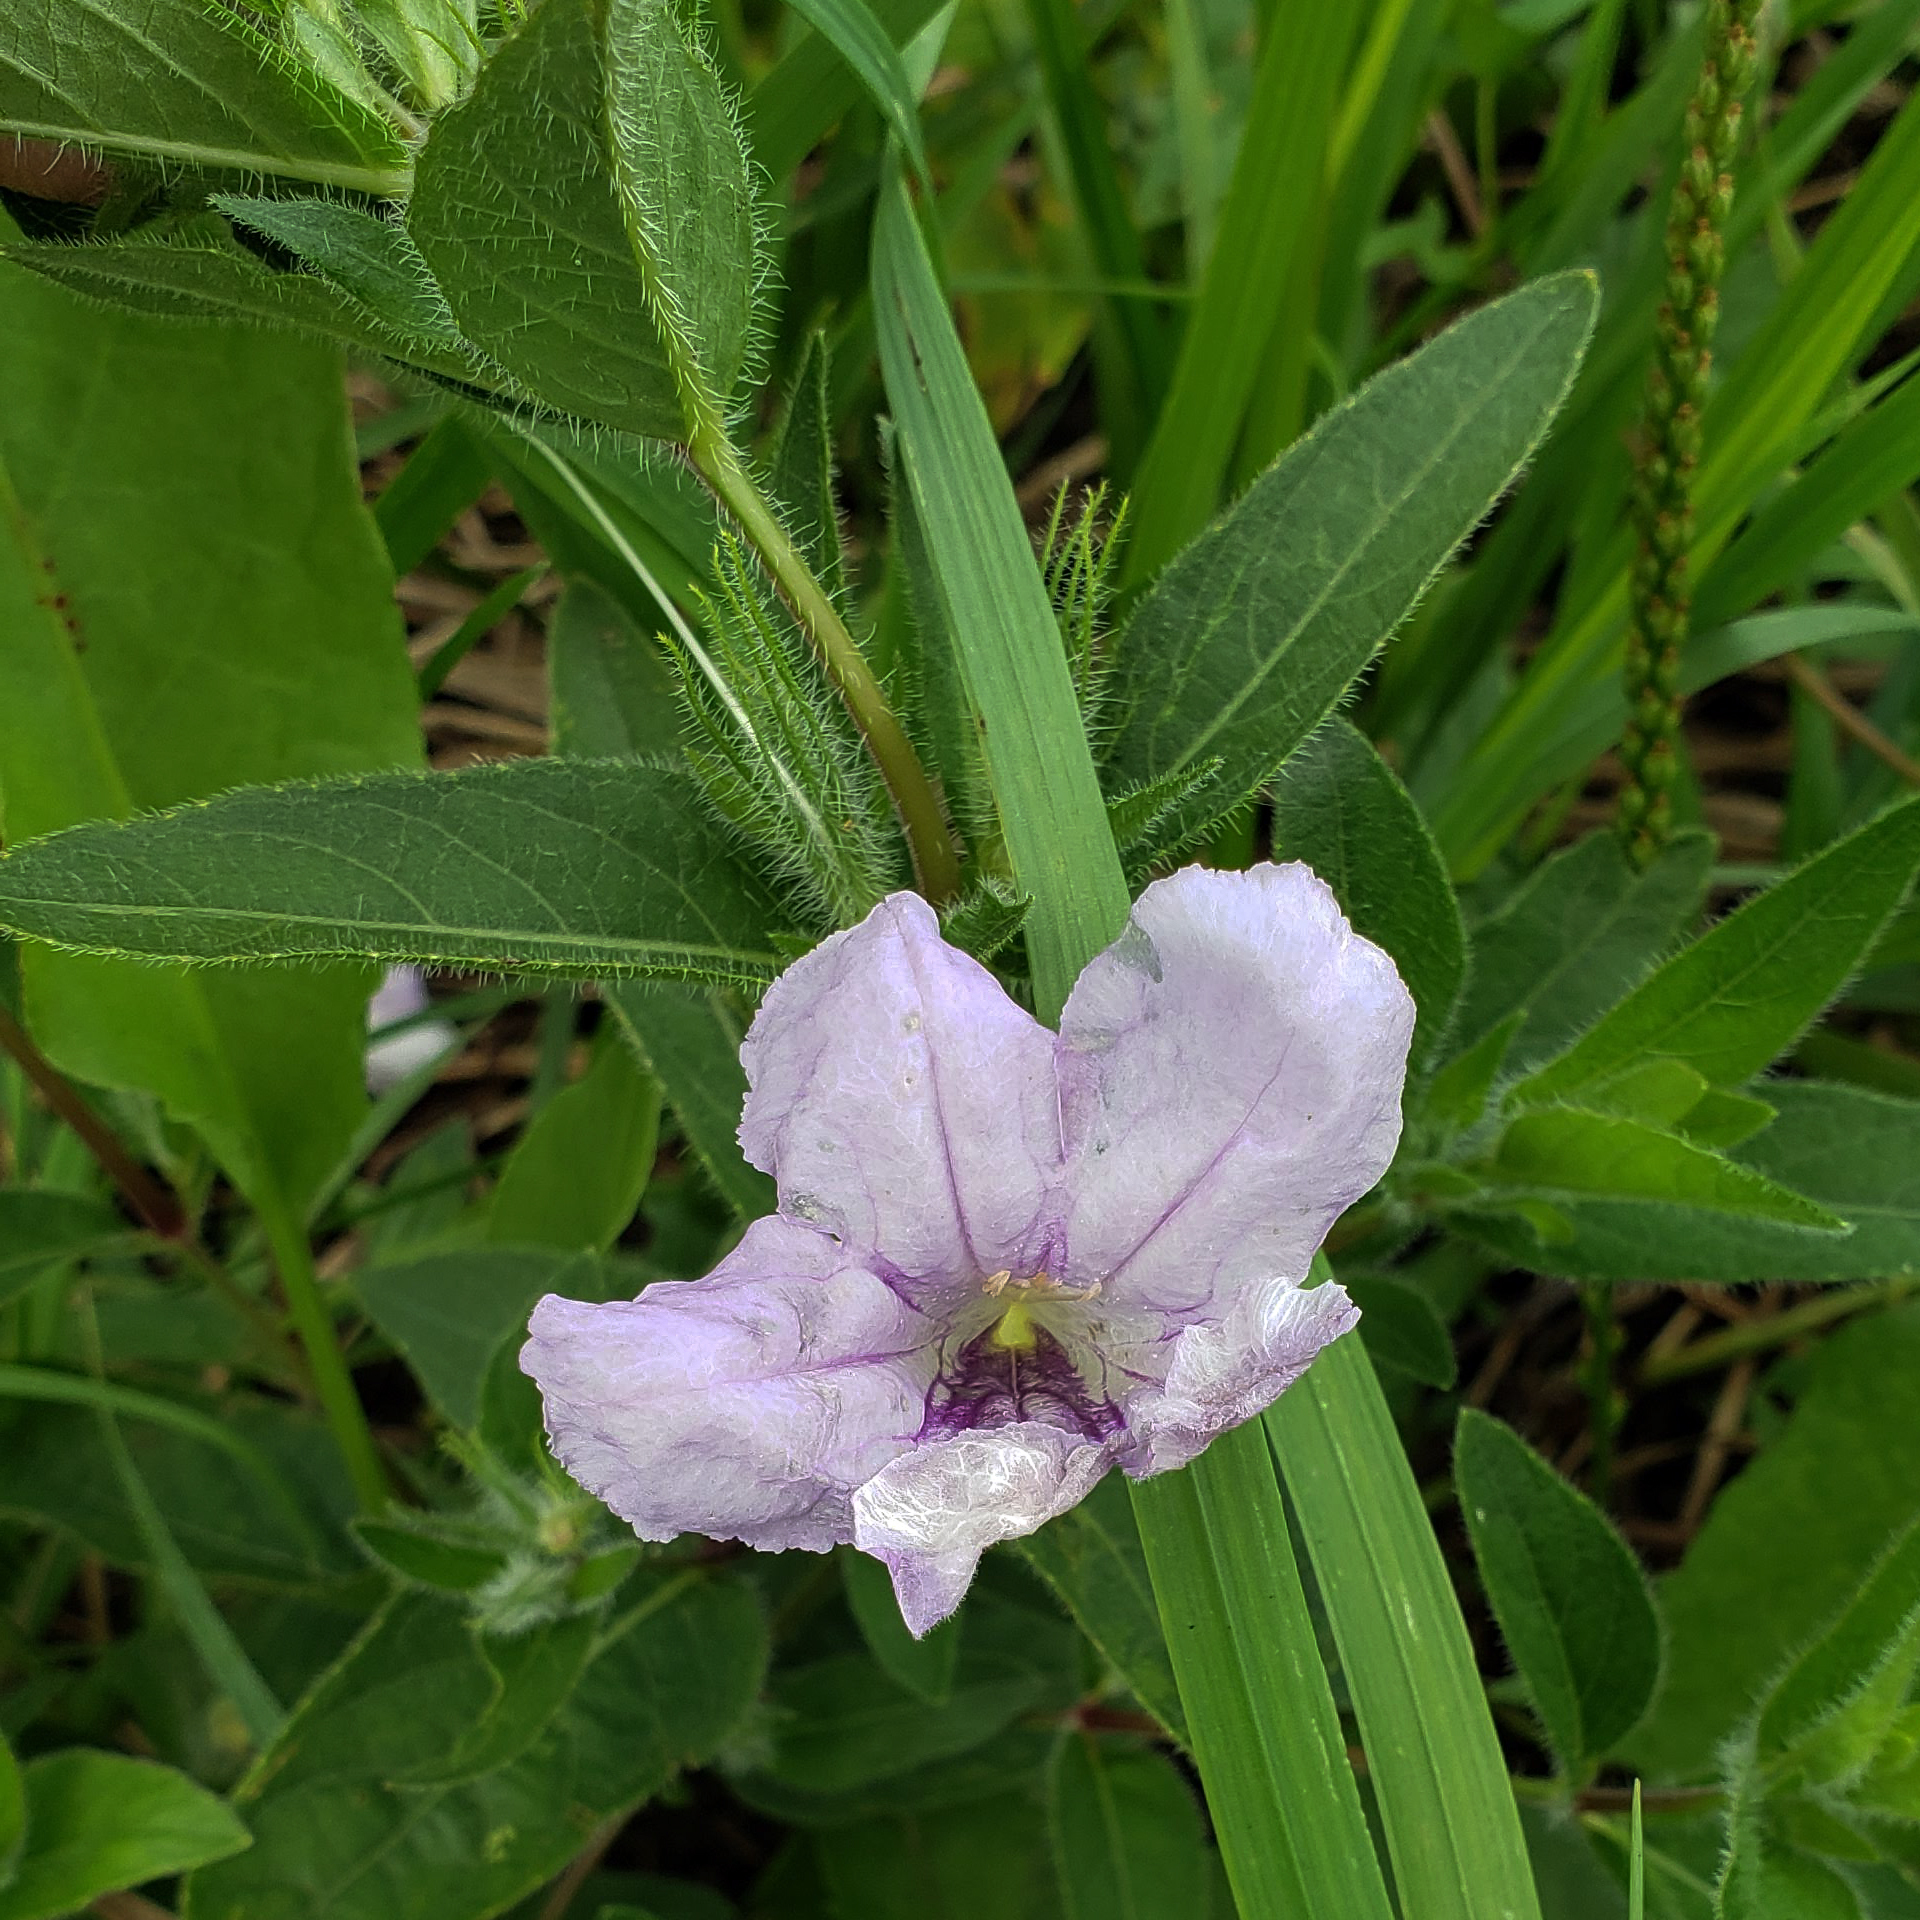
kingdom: Plantae
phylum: Tracheophyta
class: Magnoliopsida
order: Lamiales
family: Acanthaceae
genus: Ruellia
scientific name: Ruellia humilis
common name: Fringe-leaf ruellia
